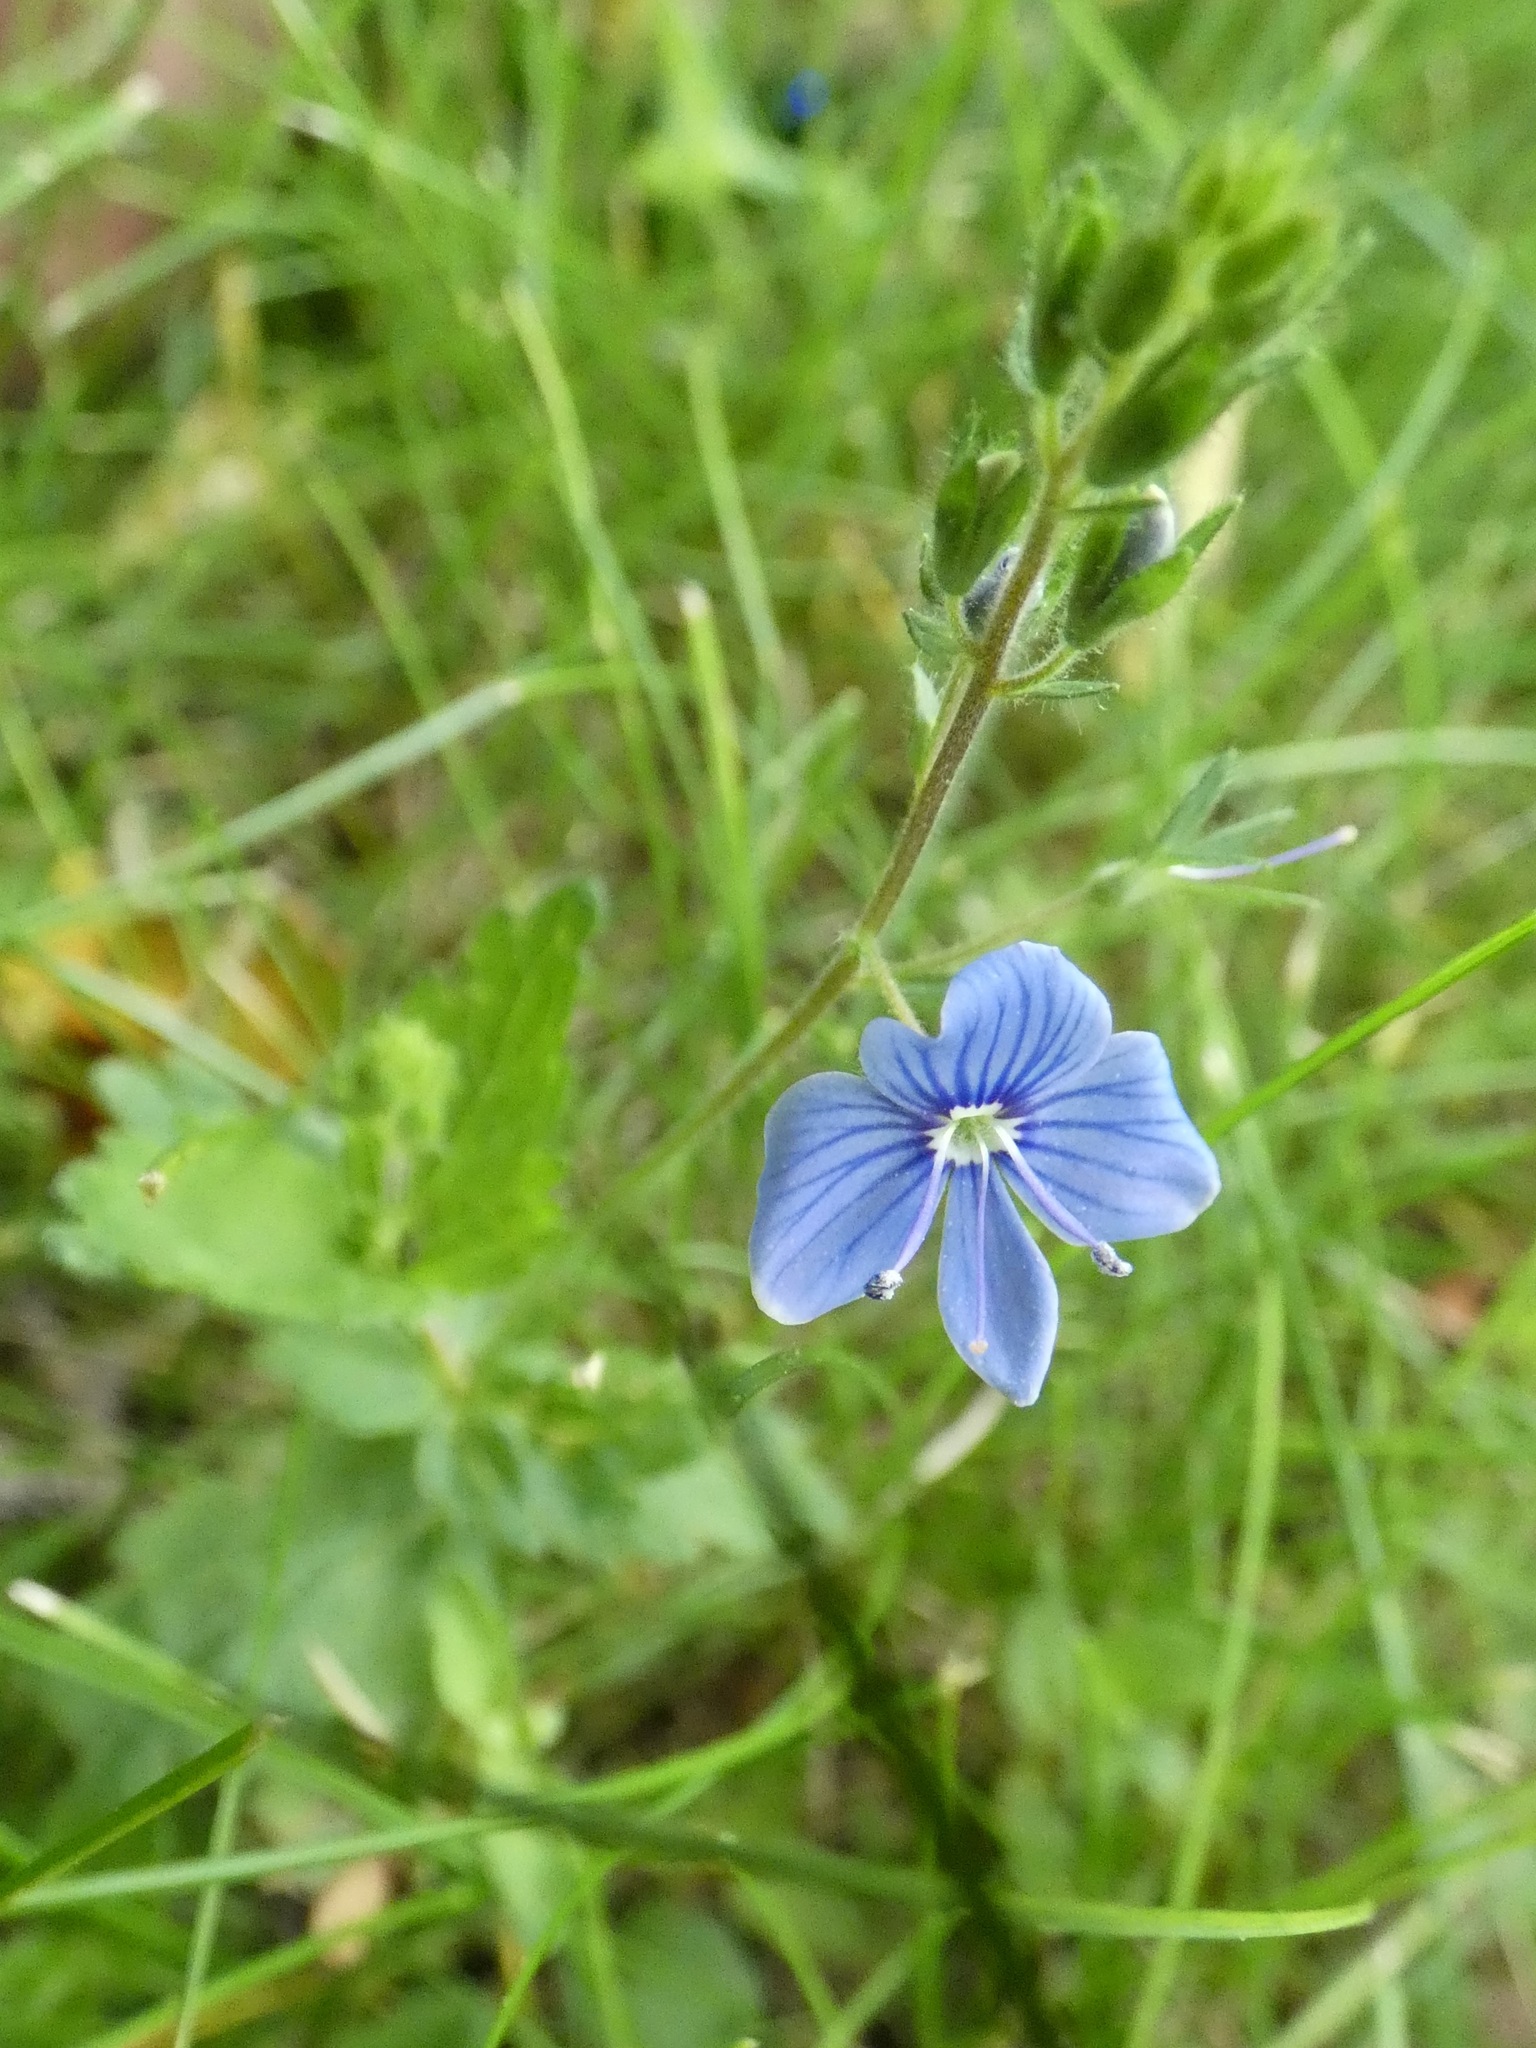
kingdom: Plantae
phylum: Tracheophyta
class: Magnoliopsida
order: Lamiales
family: Plantaginaceae
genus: Veronica
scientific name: Veronica chamaedrys
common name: Germander speedwell
